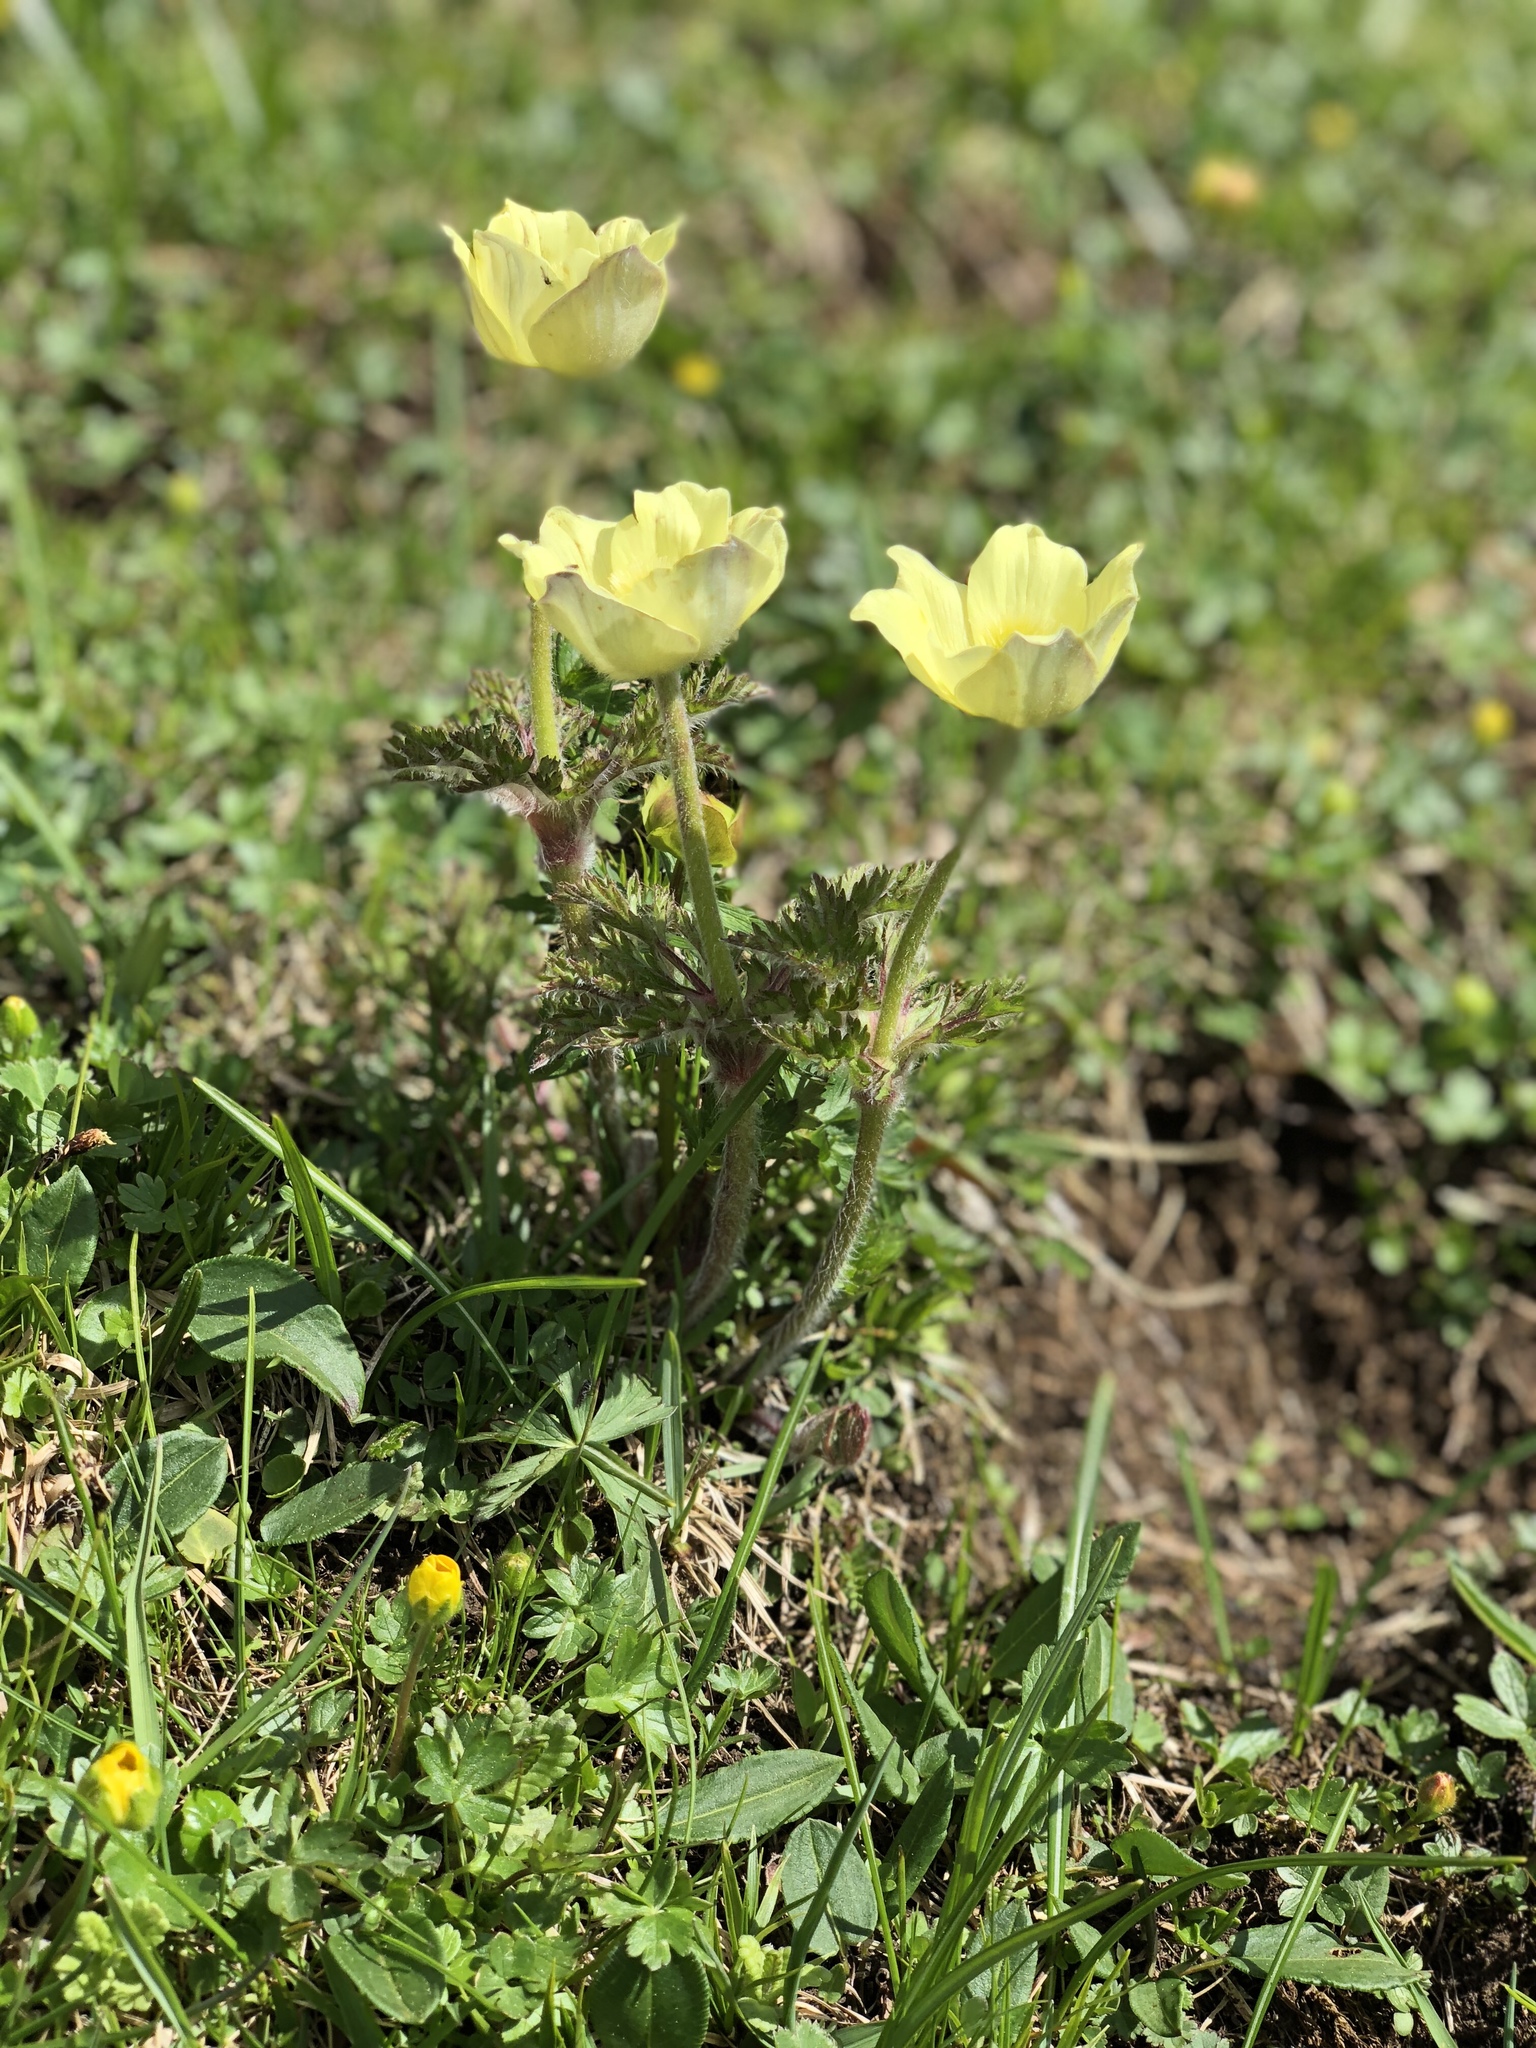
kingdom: Plantae
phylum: Tracheophyta
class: Magnoliopsida
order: Ranunculales
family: Ranunculaceae
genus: Pulsatilla
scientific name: Pulsatilla alpina
